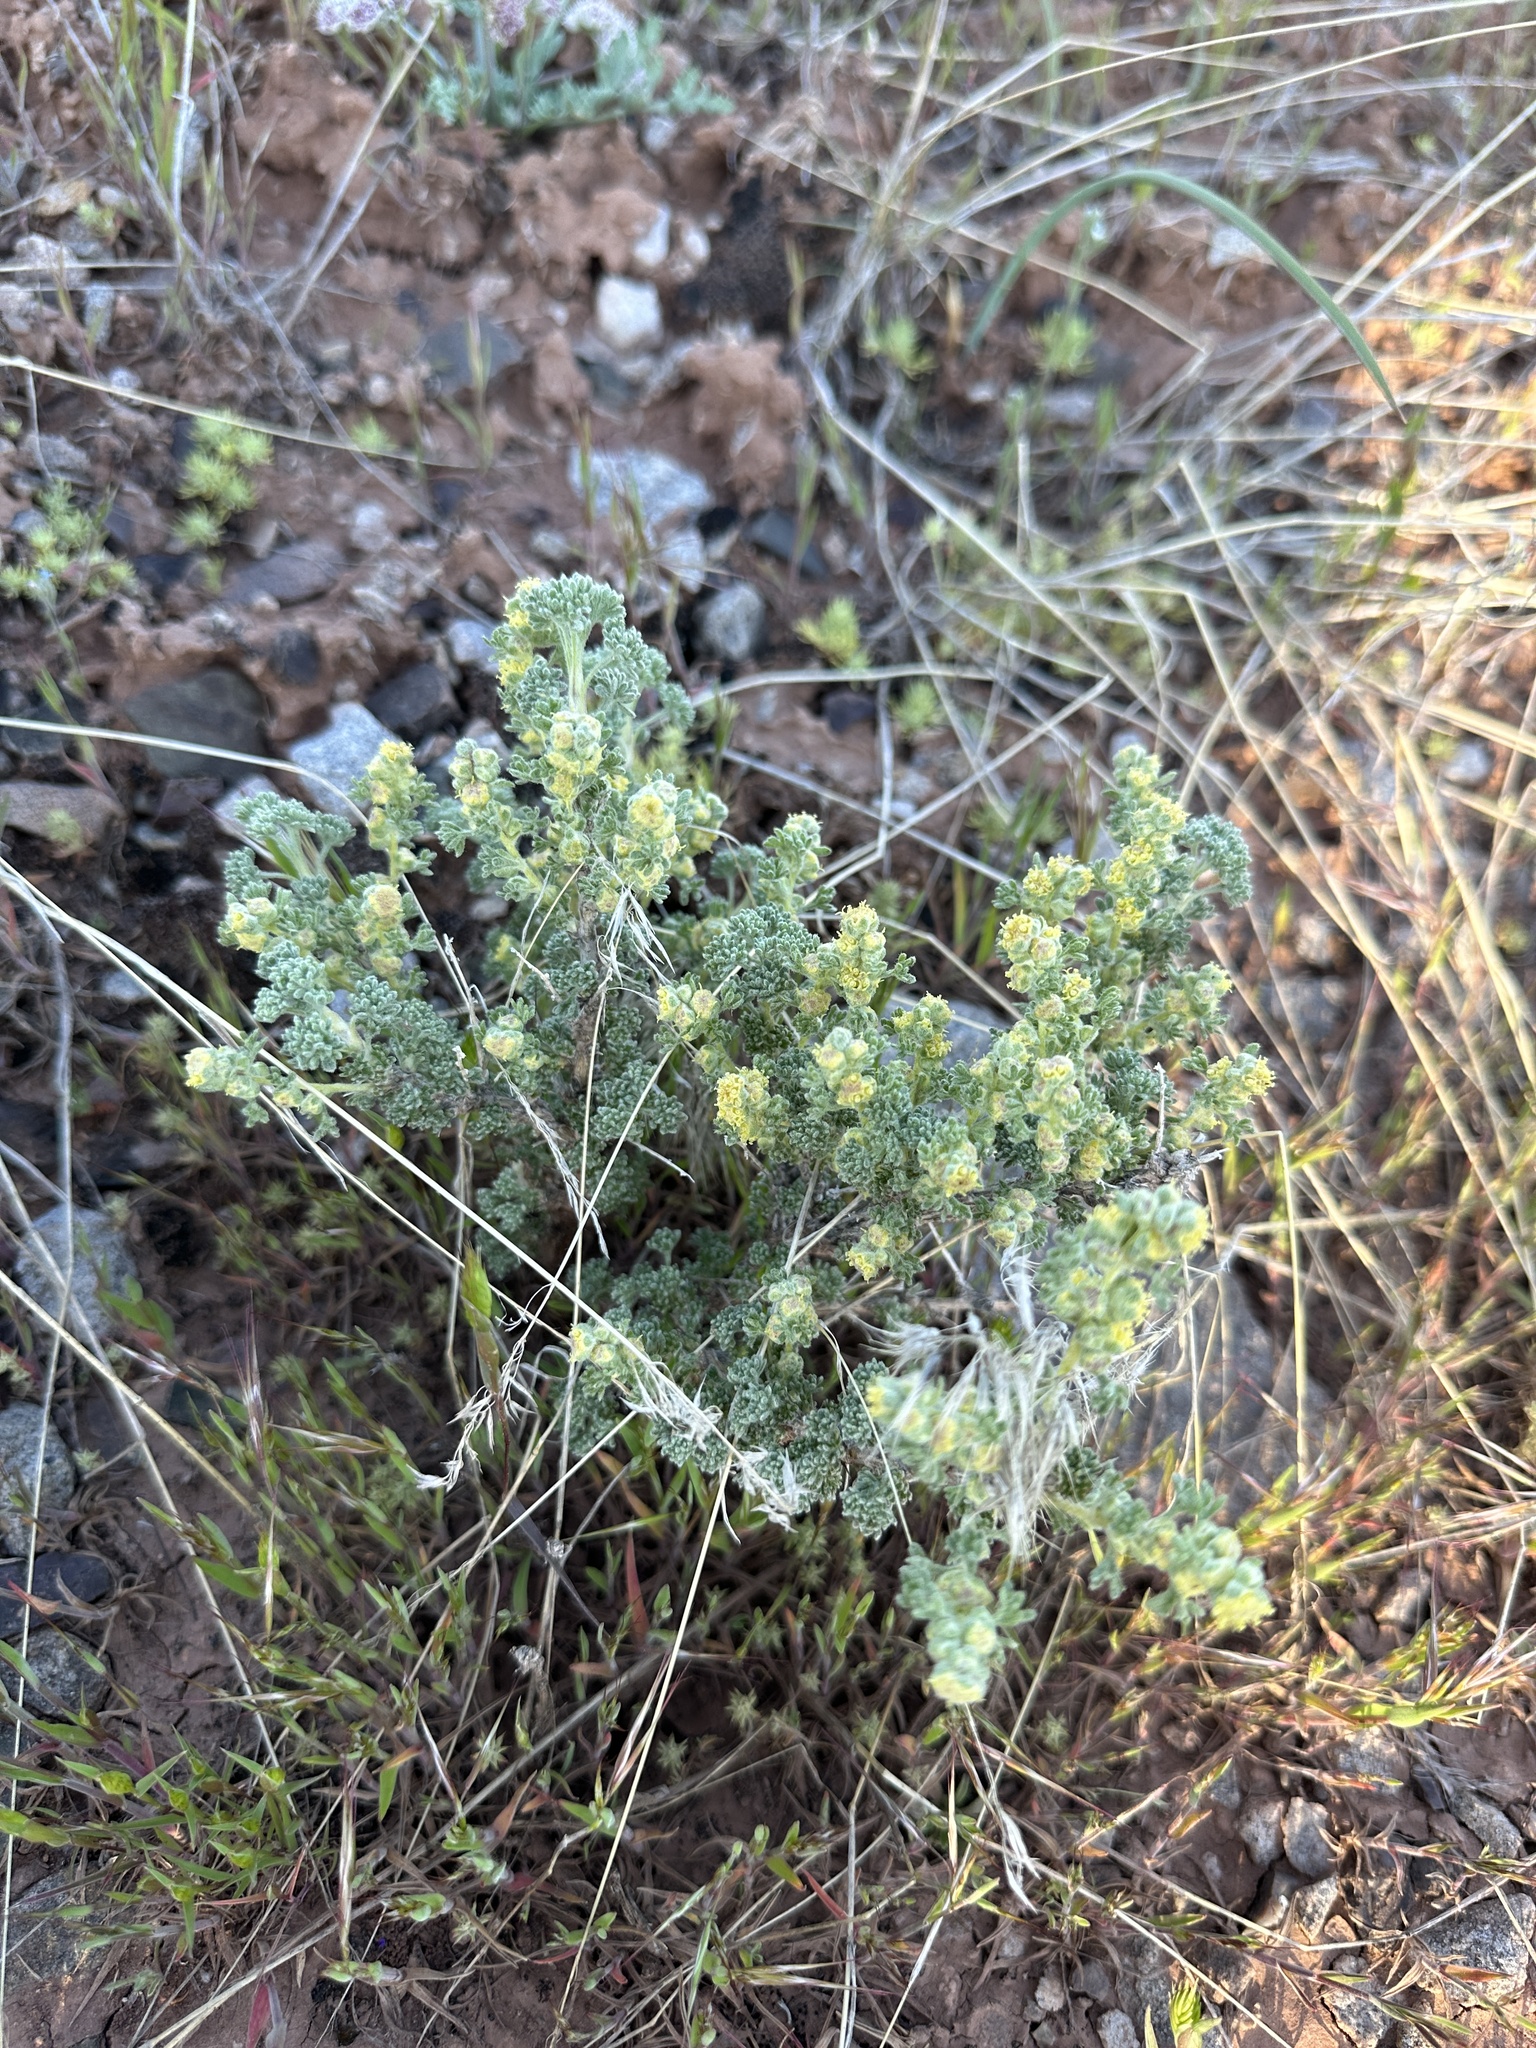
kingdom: Plantae
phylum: Tracheophyta
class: Magnoliopsida
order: Asterales
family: Asteraceae
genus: Artemisia
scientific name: Artemisia spinescens
